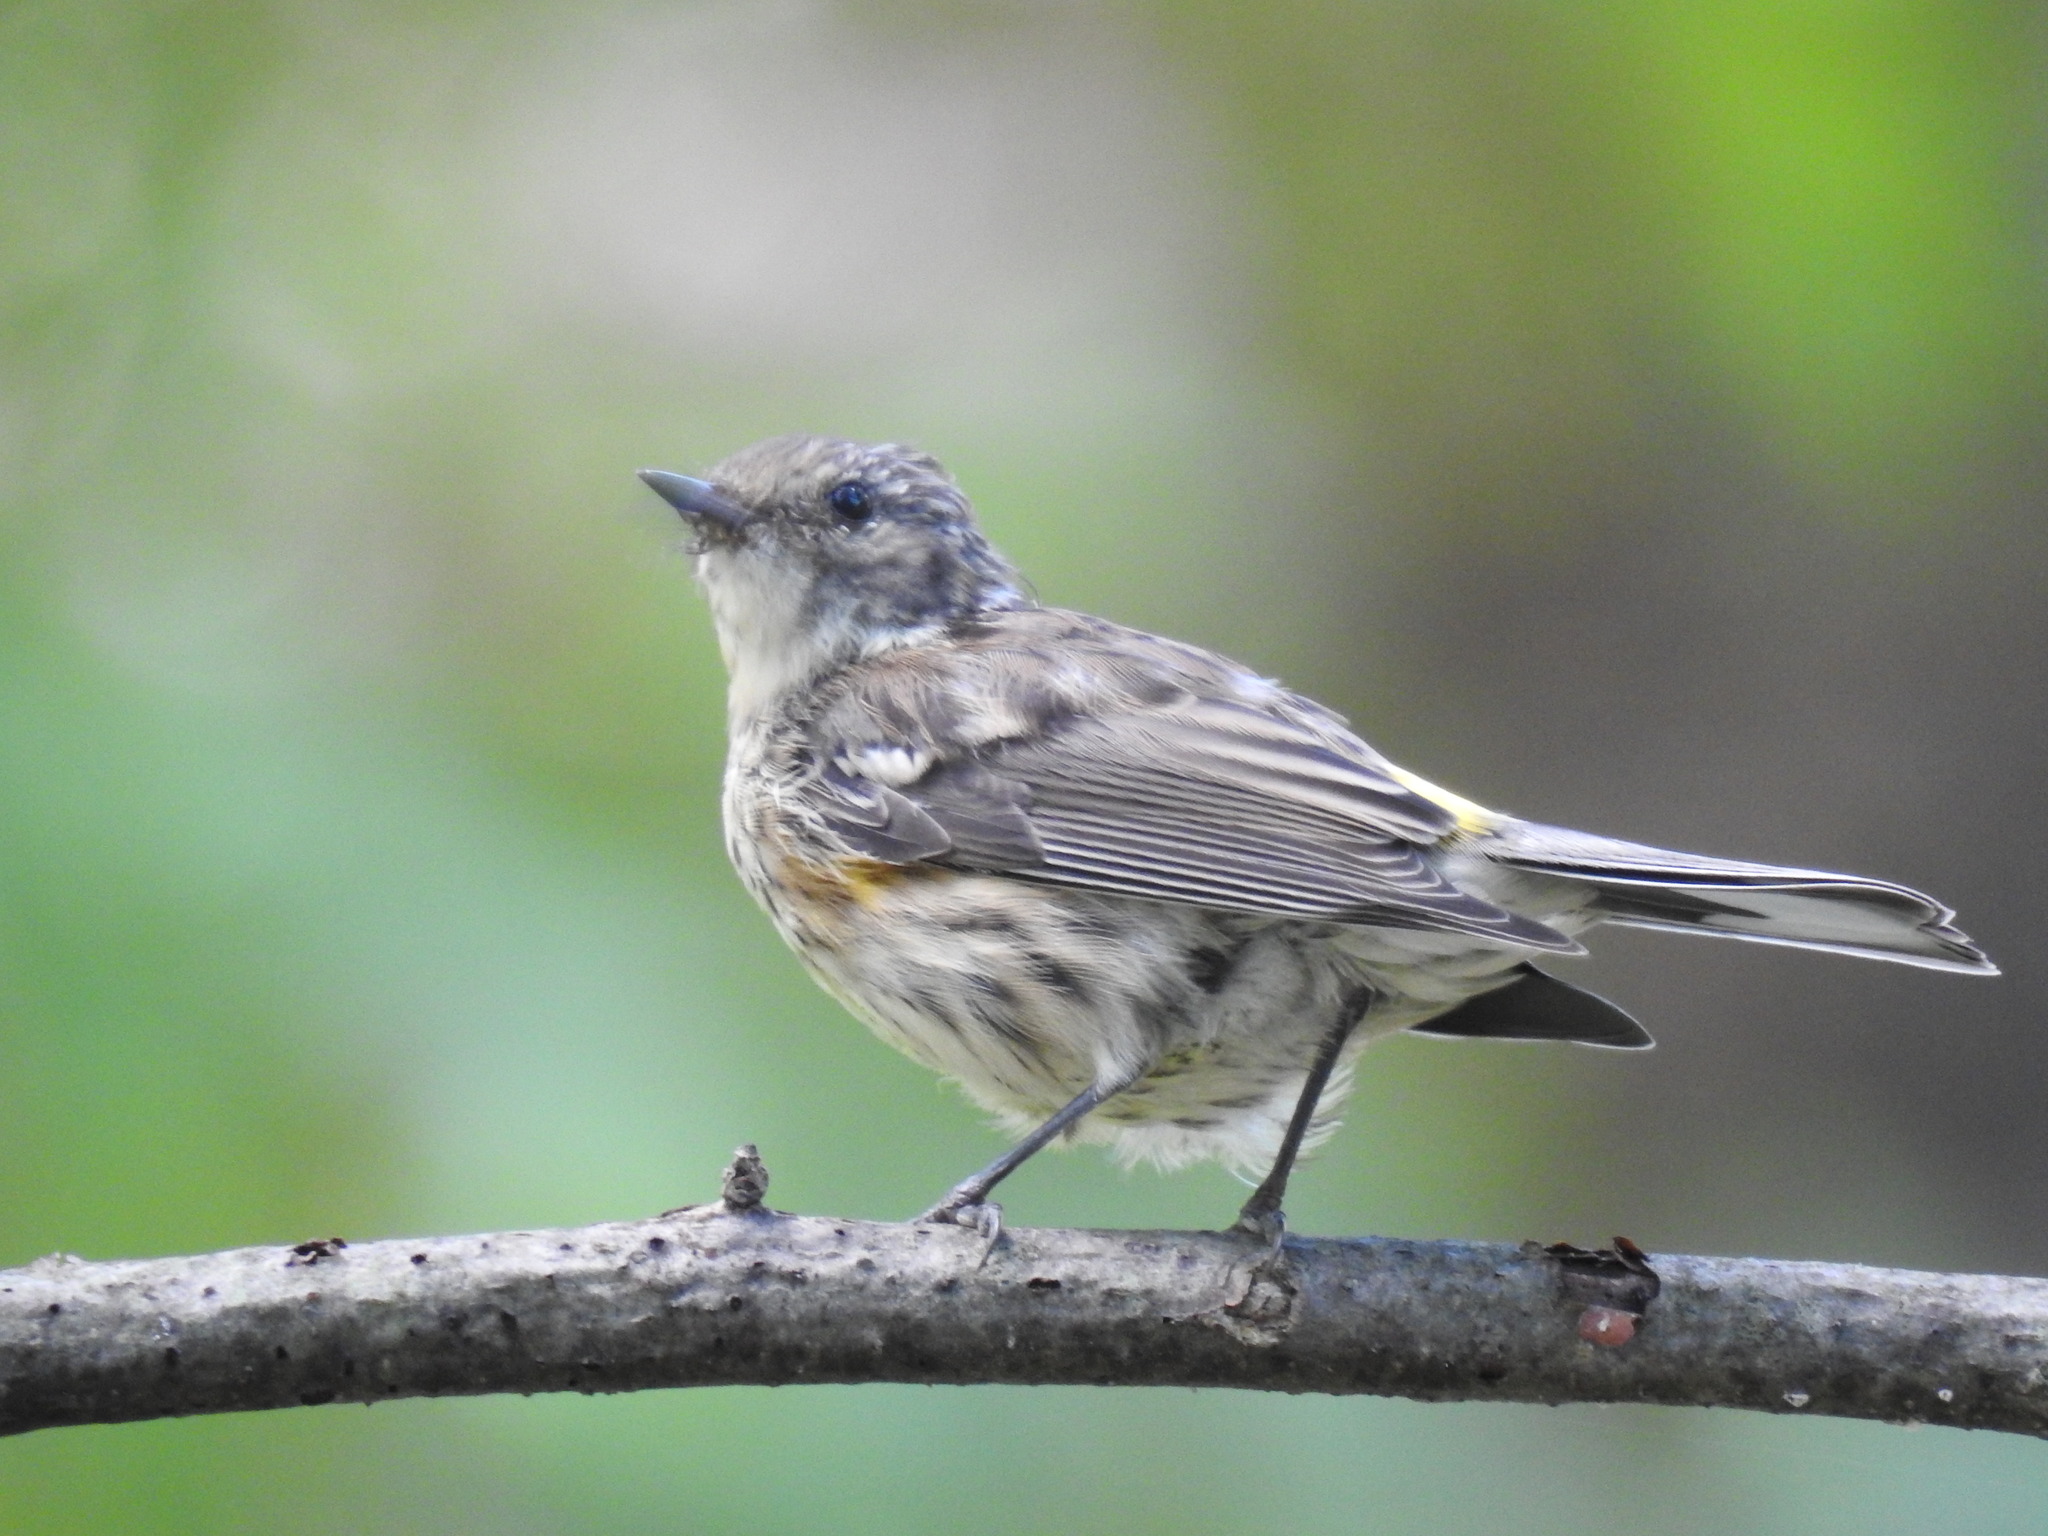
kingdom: Animalia
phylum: Chordata
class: Aves
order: Passeriformes
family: Parulidae
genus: Setophaga
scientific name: Setophaga coronata
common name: Myrtle warbler
